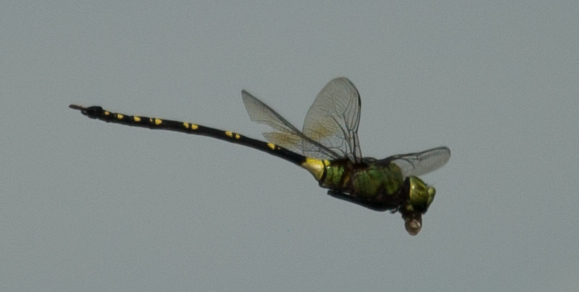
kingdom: Animalia
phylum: Arthropoda
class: Insecta
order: Odonata
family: Aeshnidae
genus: Anax
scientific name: Anax tristis
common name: Black emperor
